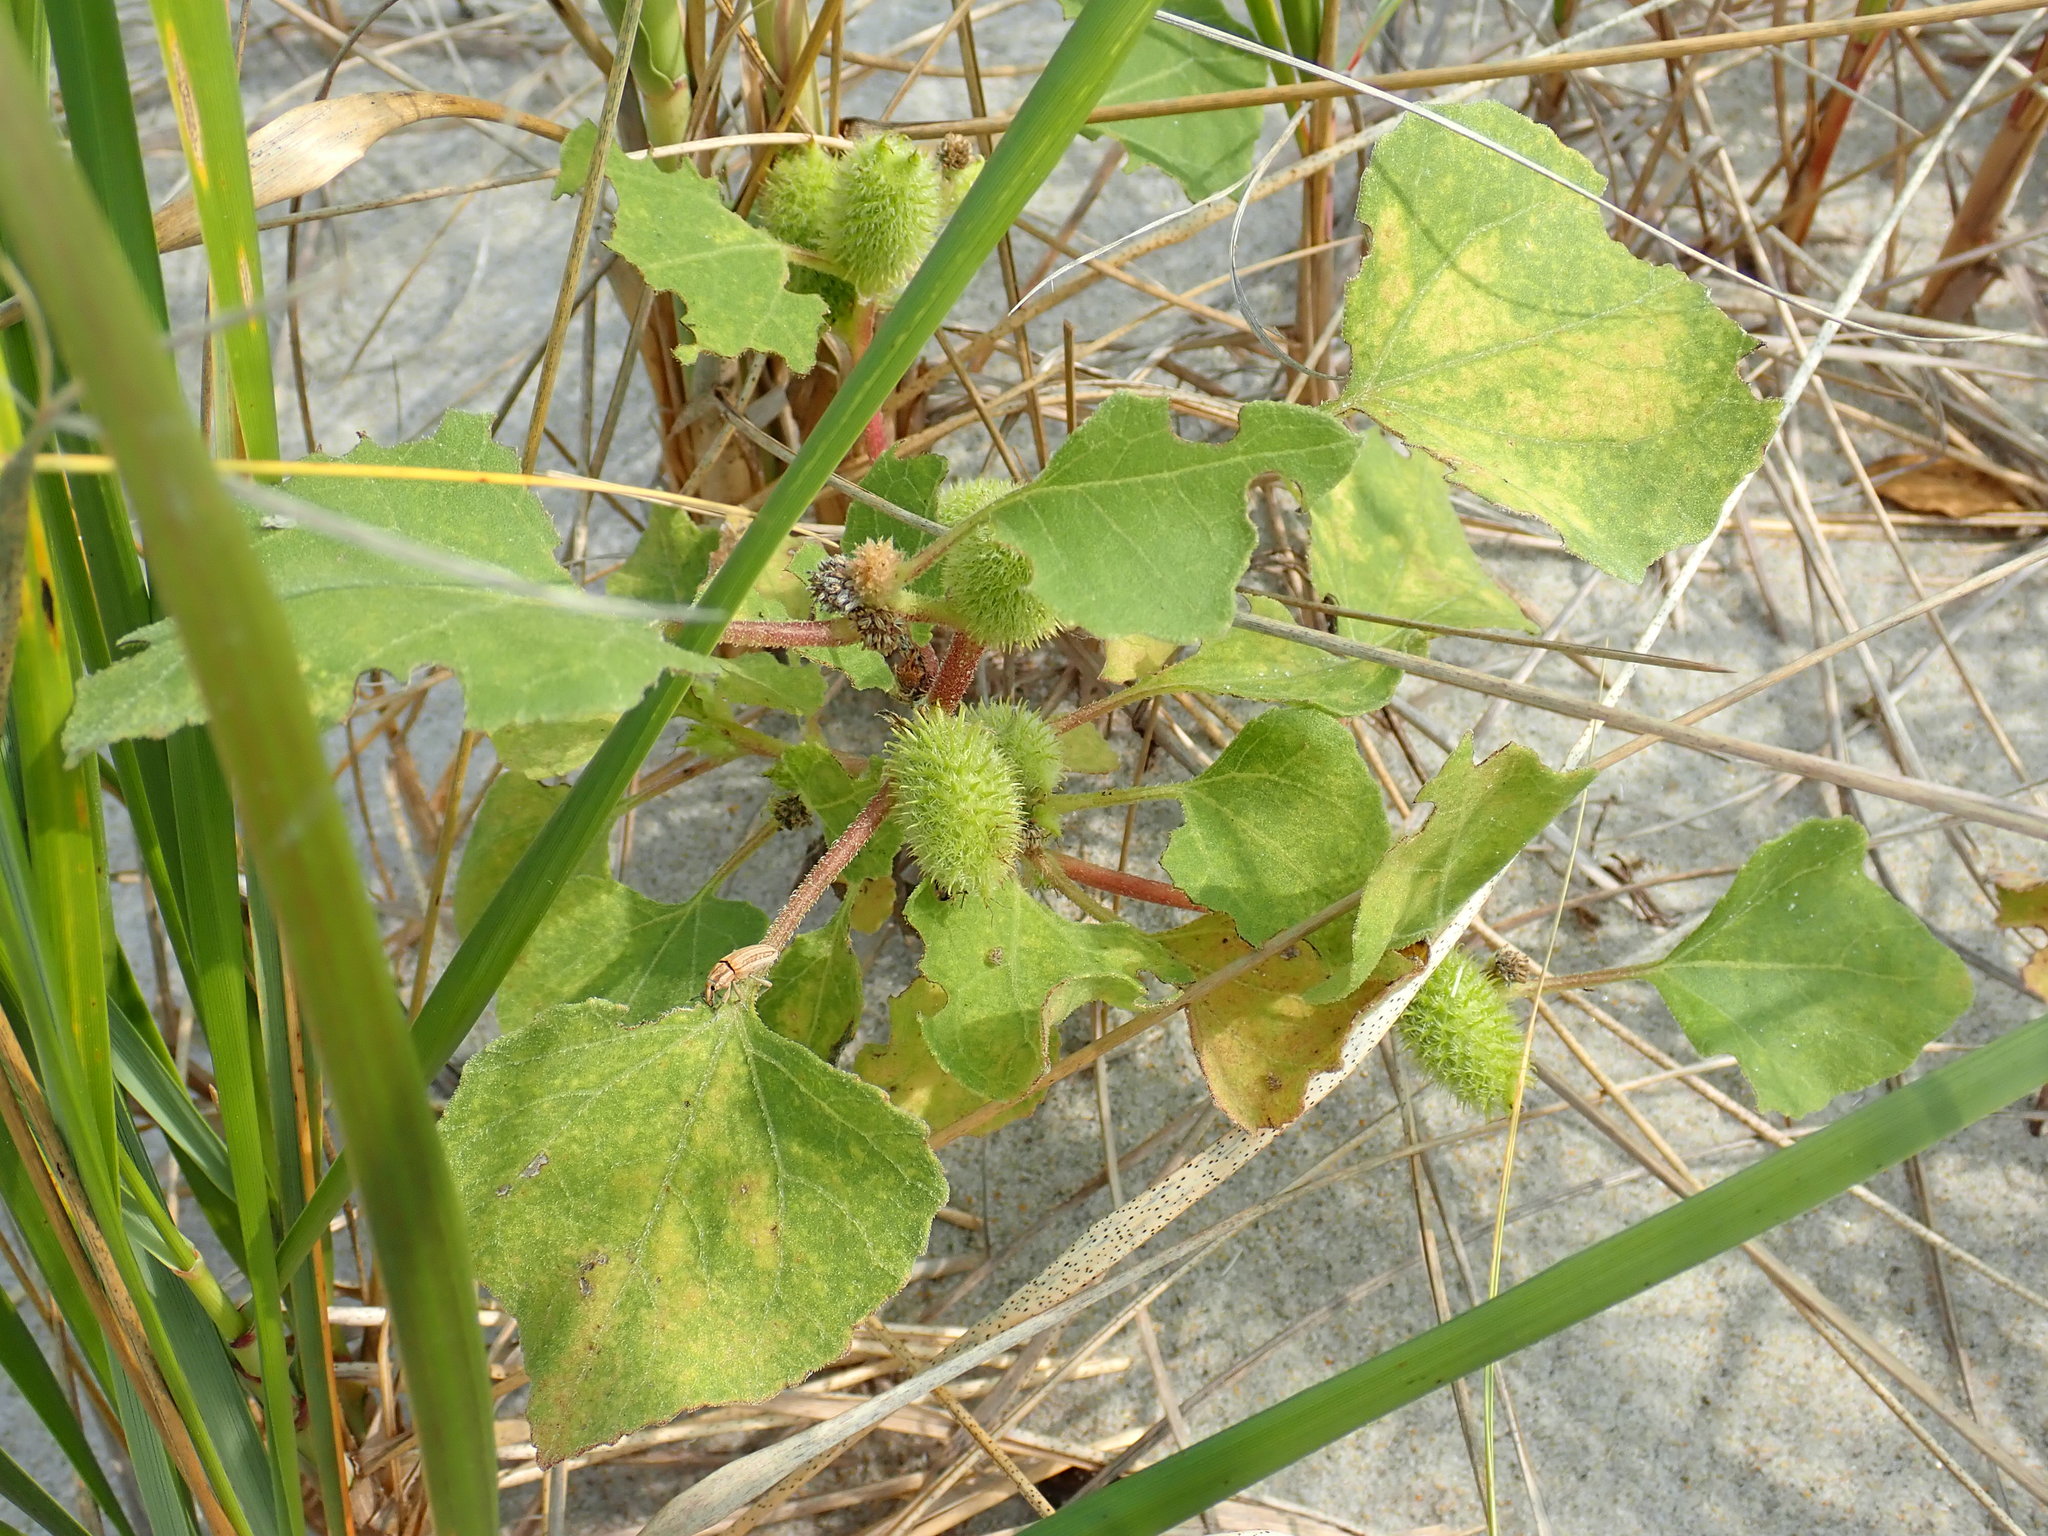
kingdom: Plantae
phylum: Tracheophyta
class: Magnoliopsida
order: Asterales
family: Asteraceae
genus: Xanthium
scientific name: Xanthium strumarium
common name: Rough cocklebur
